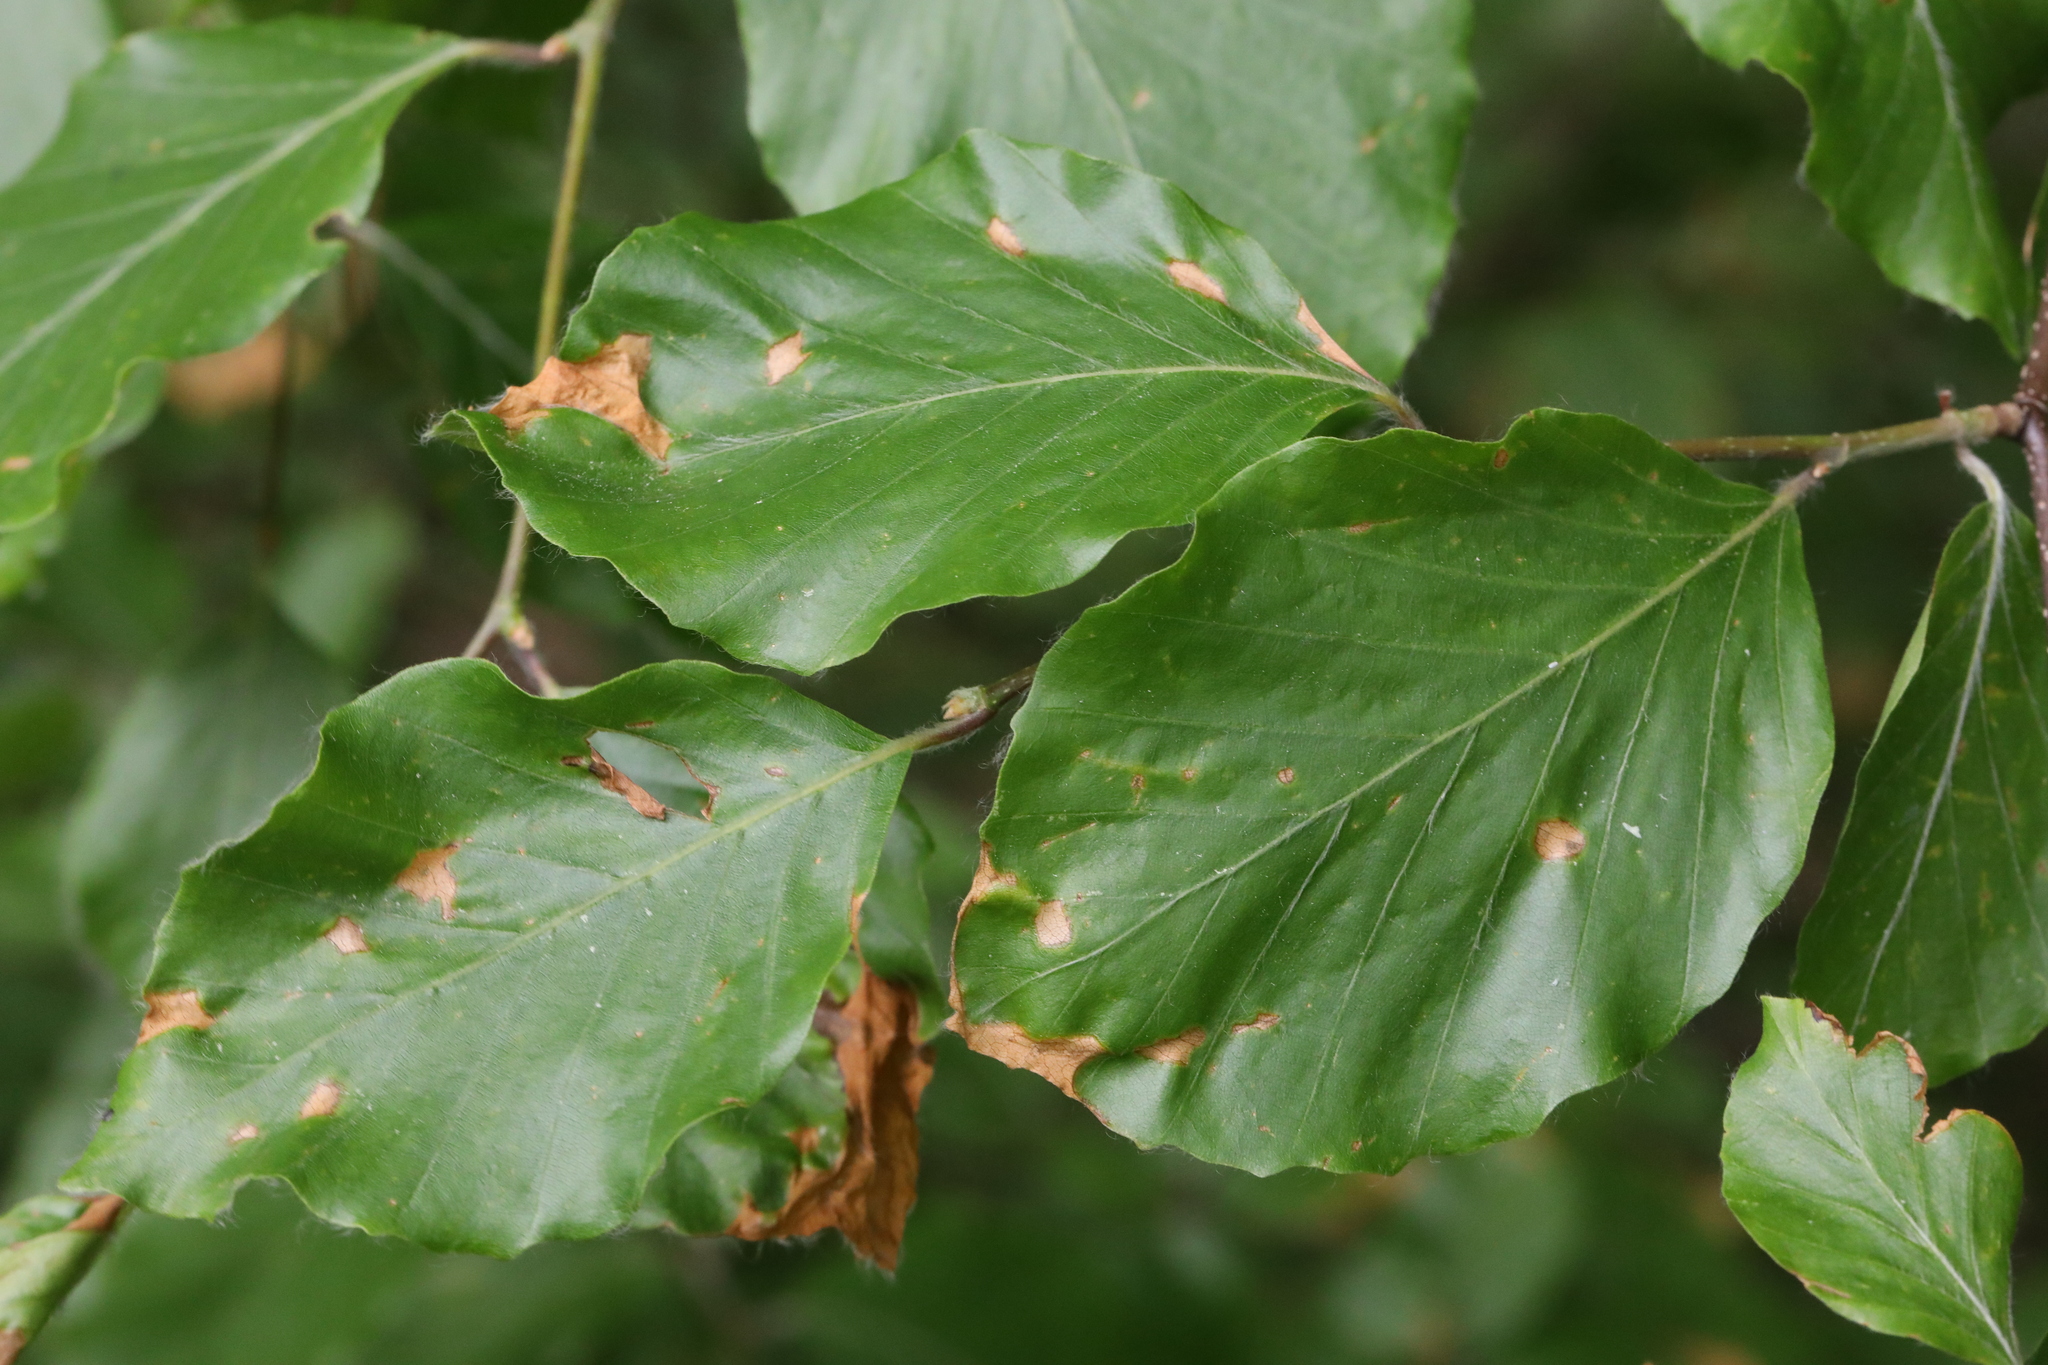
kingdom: Plantae
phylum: Tracheophyta
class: Magnoliopsida
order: Fagales
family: Fagaceae
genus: Fagus
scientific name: Fagus sylvatica
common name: Beech
